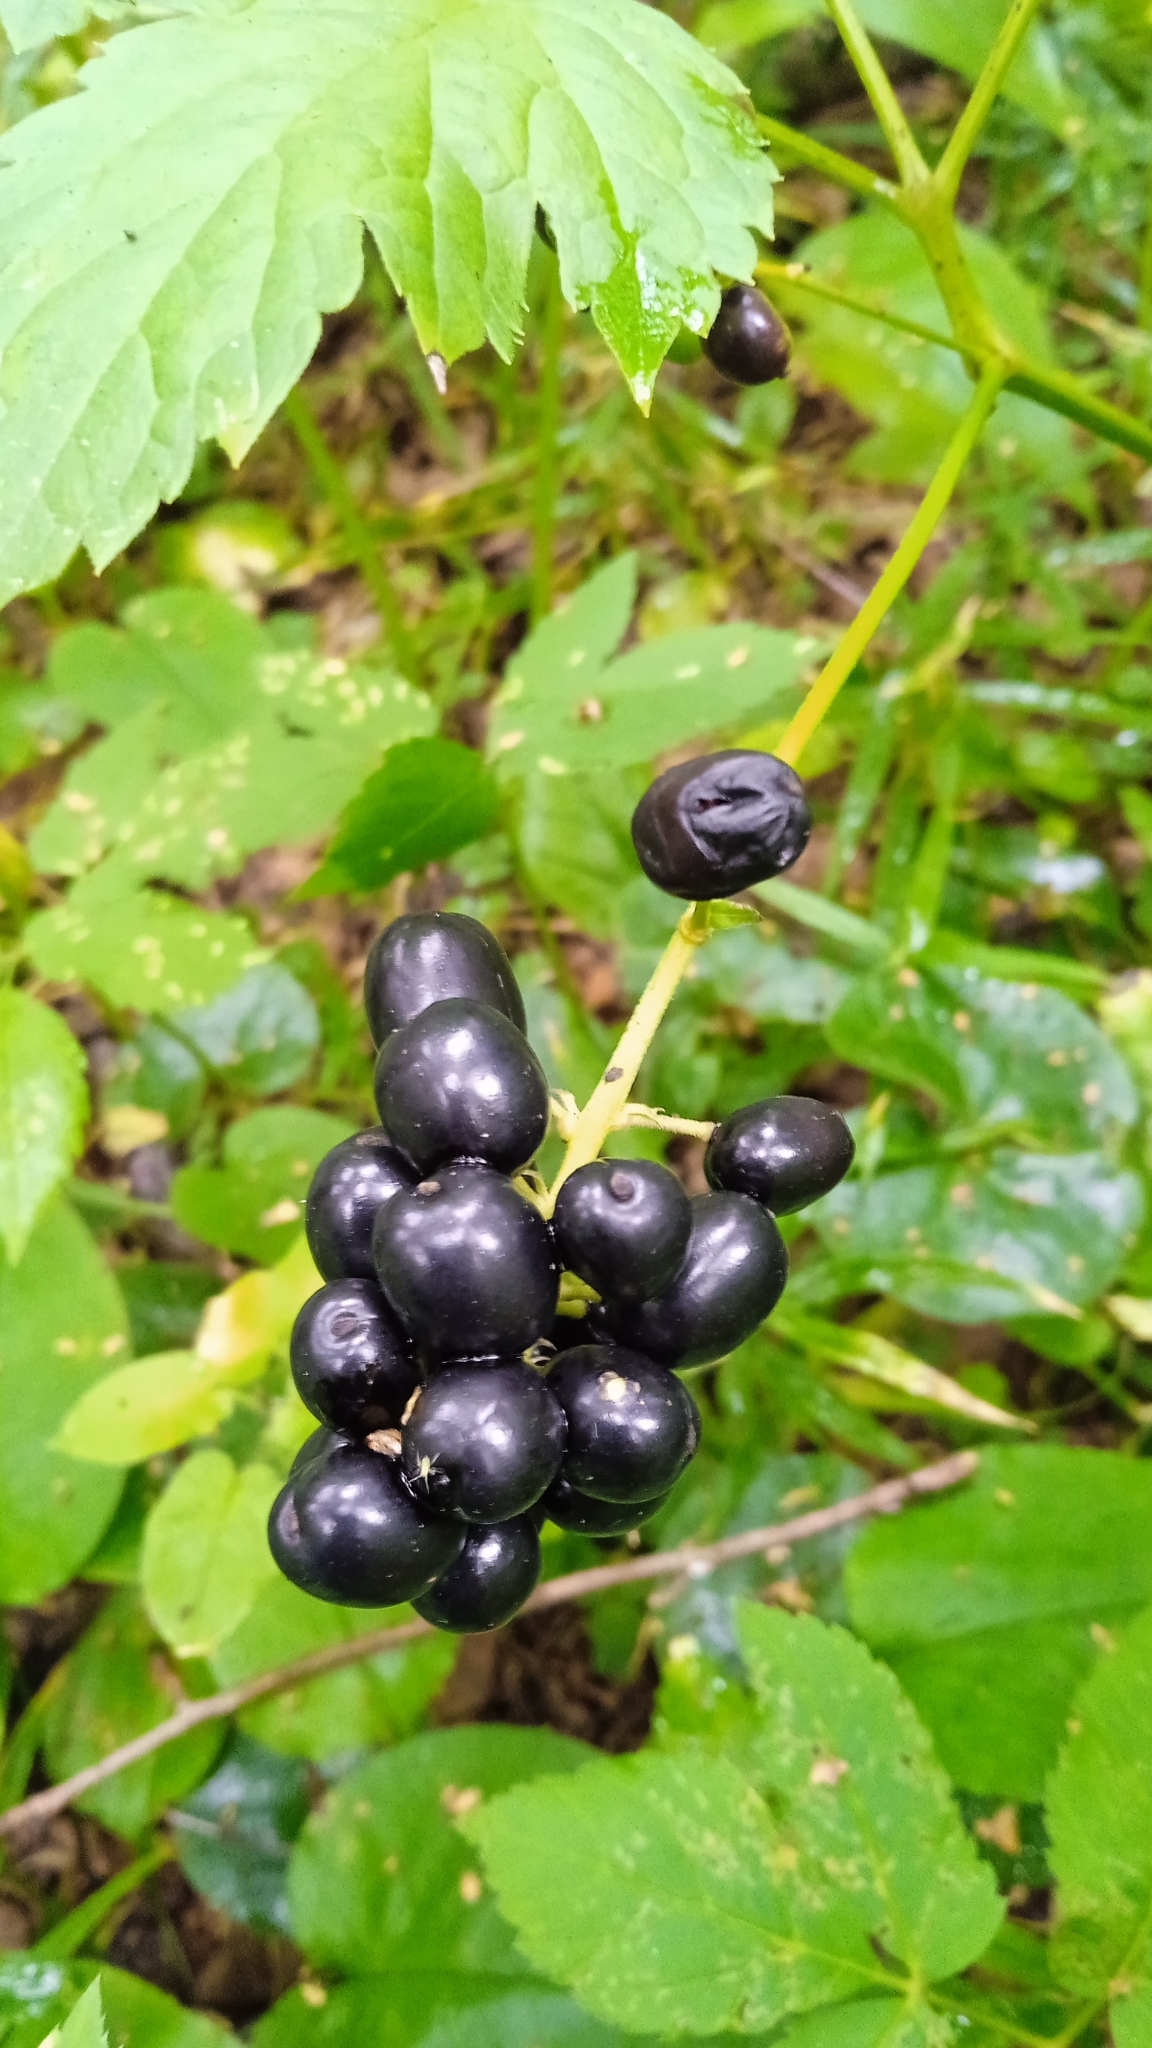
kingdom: Plantae
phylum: Tracheophyta
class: Magnoliopsida
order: Ranunculales
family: Ranunculaceae
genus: Actaea
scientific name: Actaea spicata
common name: Baneberry
